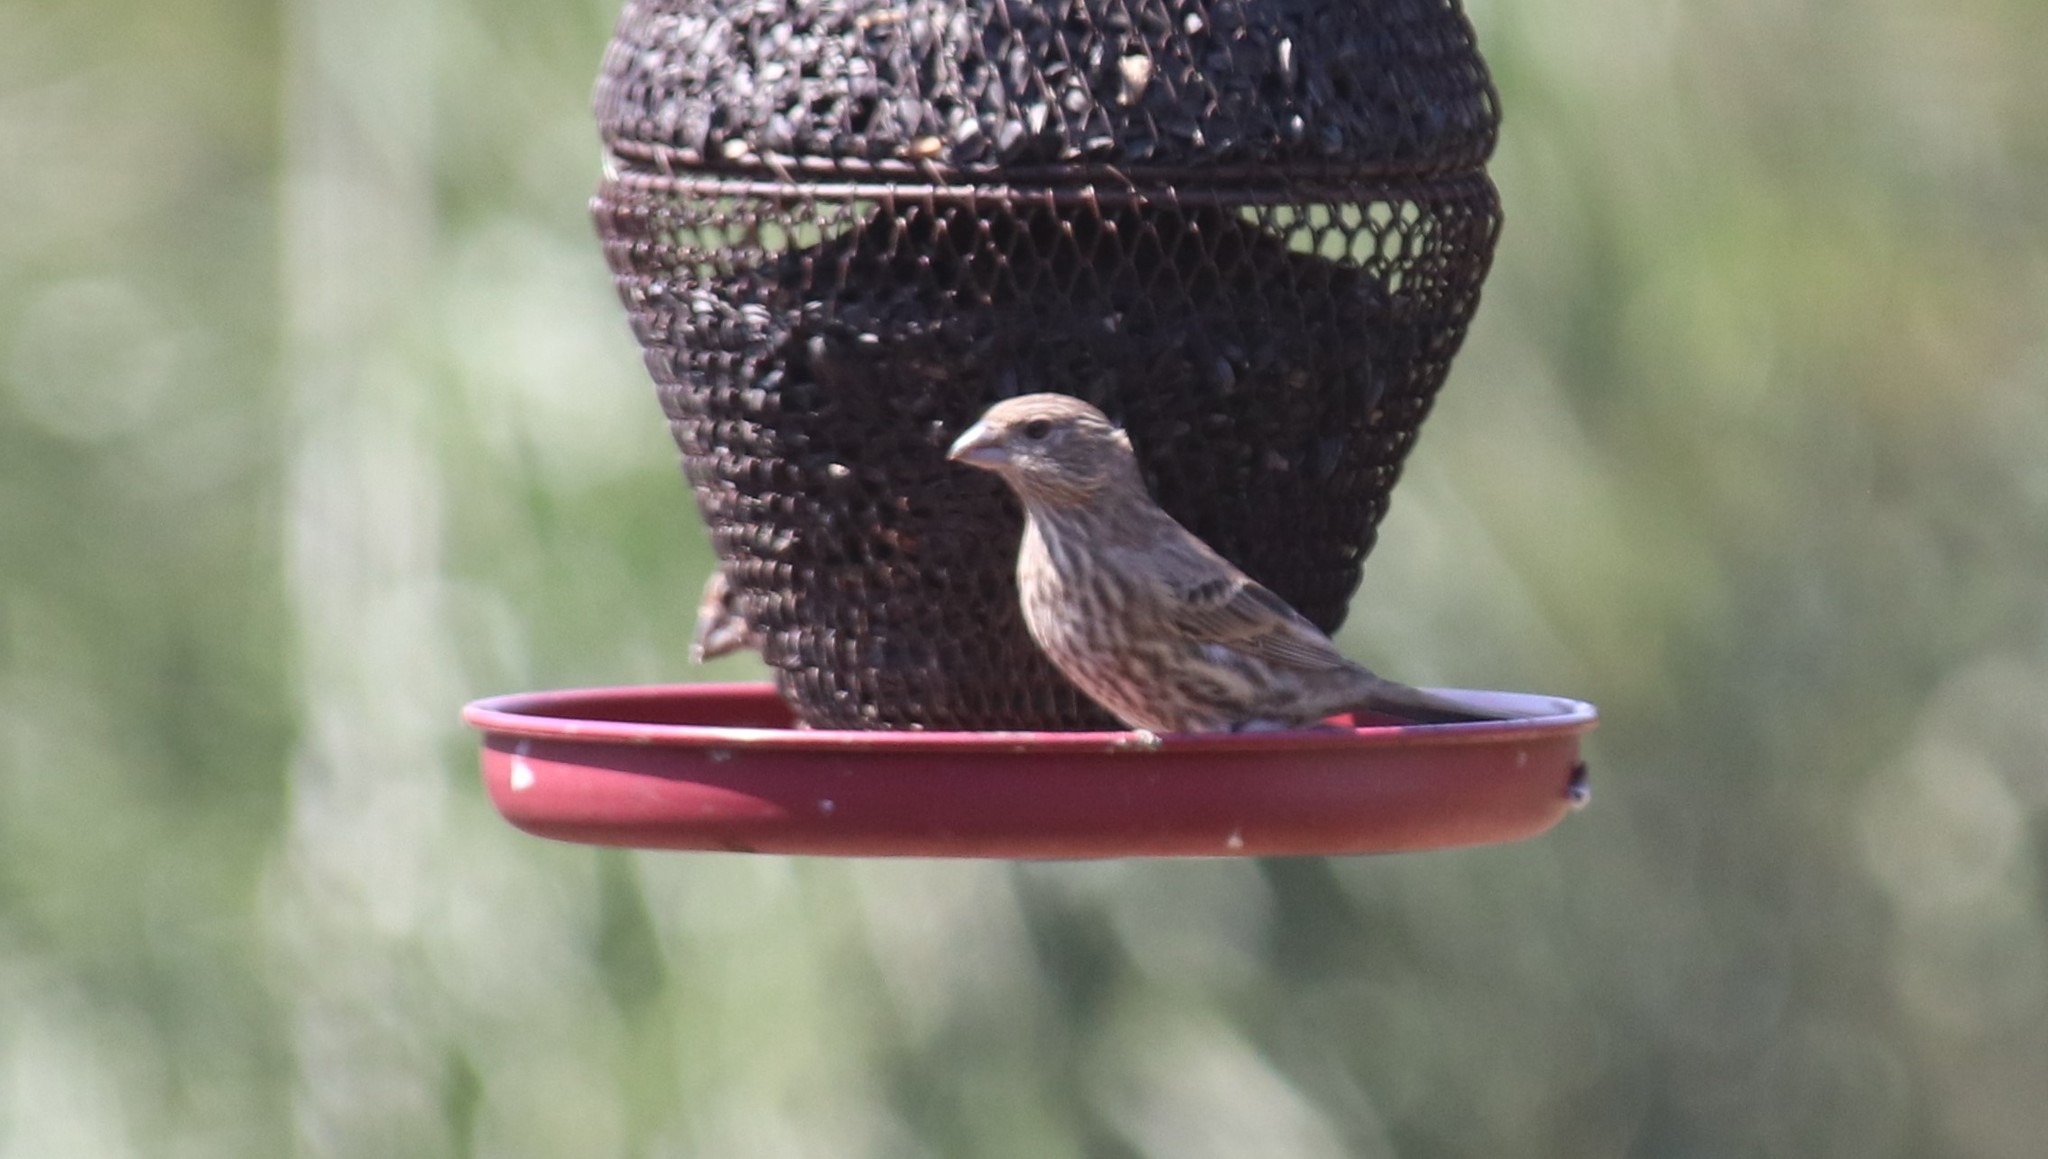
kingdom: Animalia
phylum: Chordata
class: Aves
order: Passeriformes
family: Fringillidae
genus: Haemorhous
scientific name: Haemorhous mexicanus
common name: House finch
